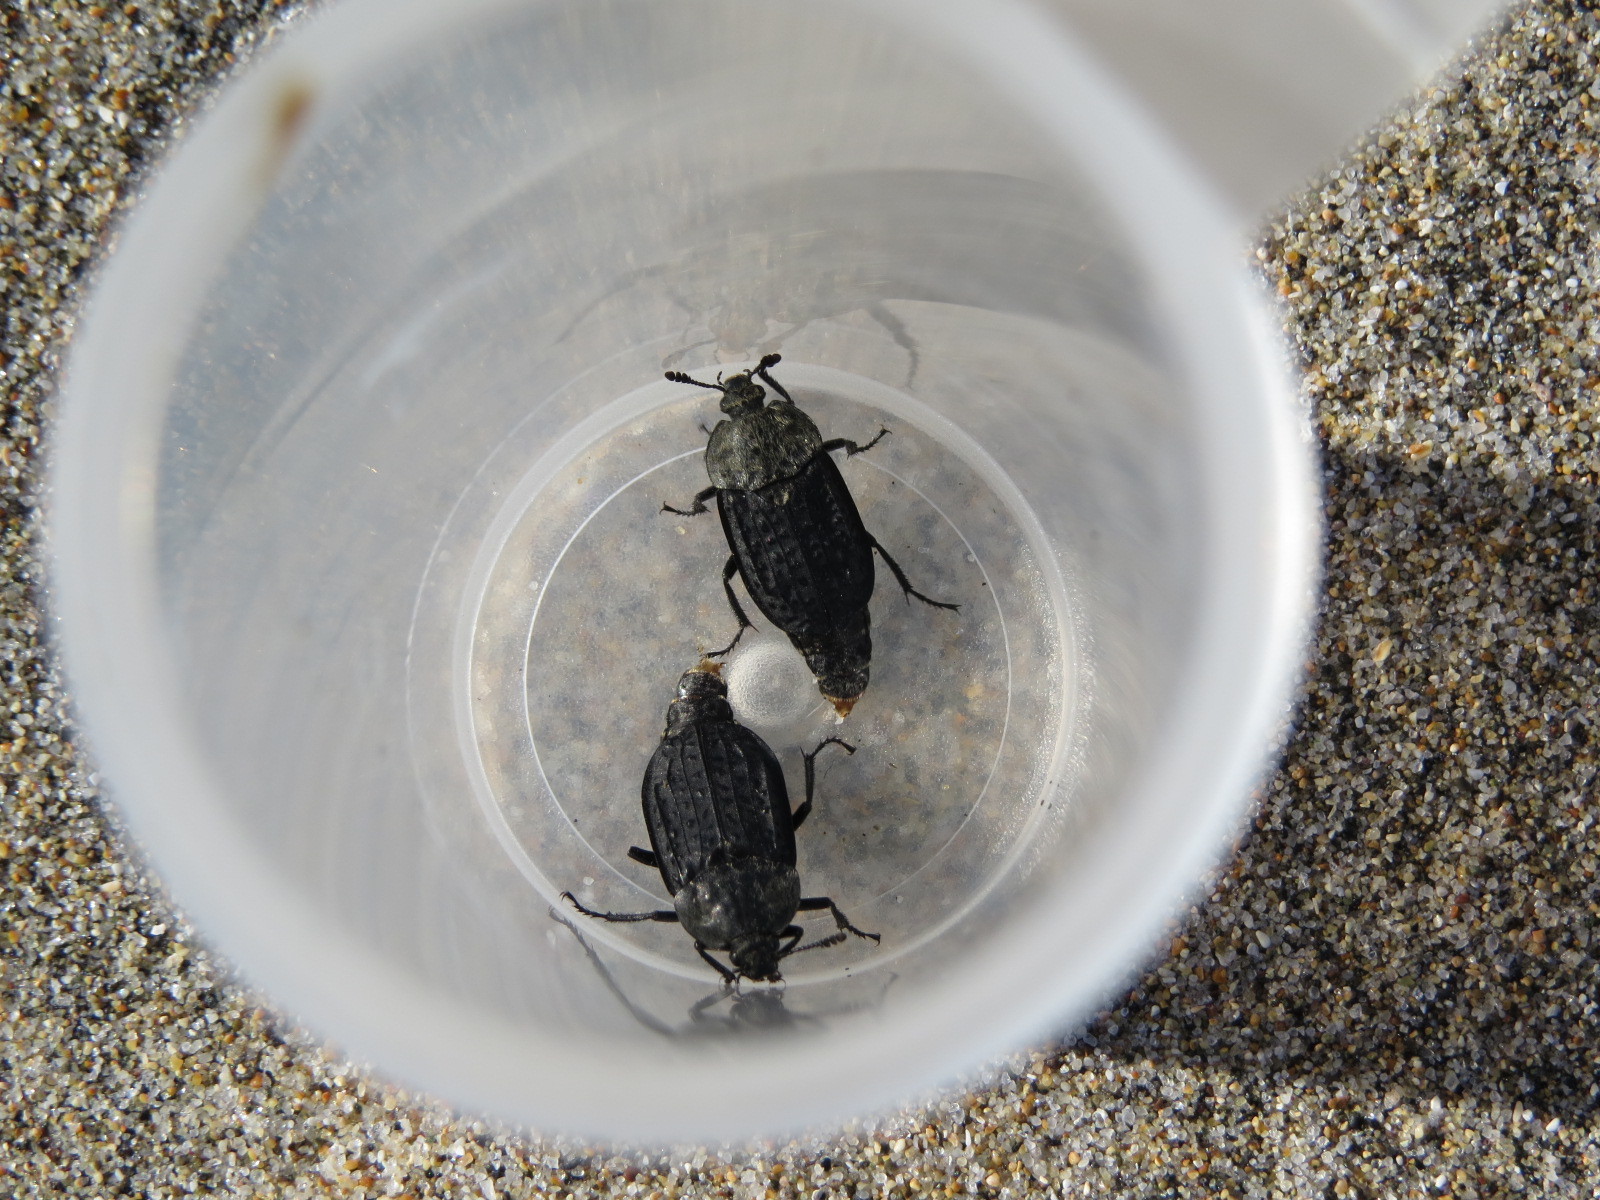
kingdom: Animalia
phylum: Arthropoda
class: Insecta
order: Coleoptera
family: Staphylinidae
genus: Thanatophilus
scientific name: Thanatophilus lapponicus
